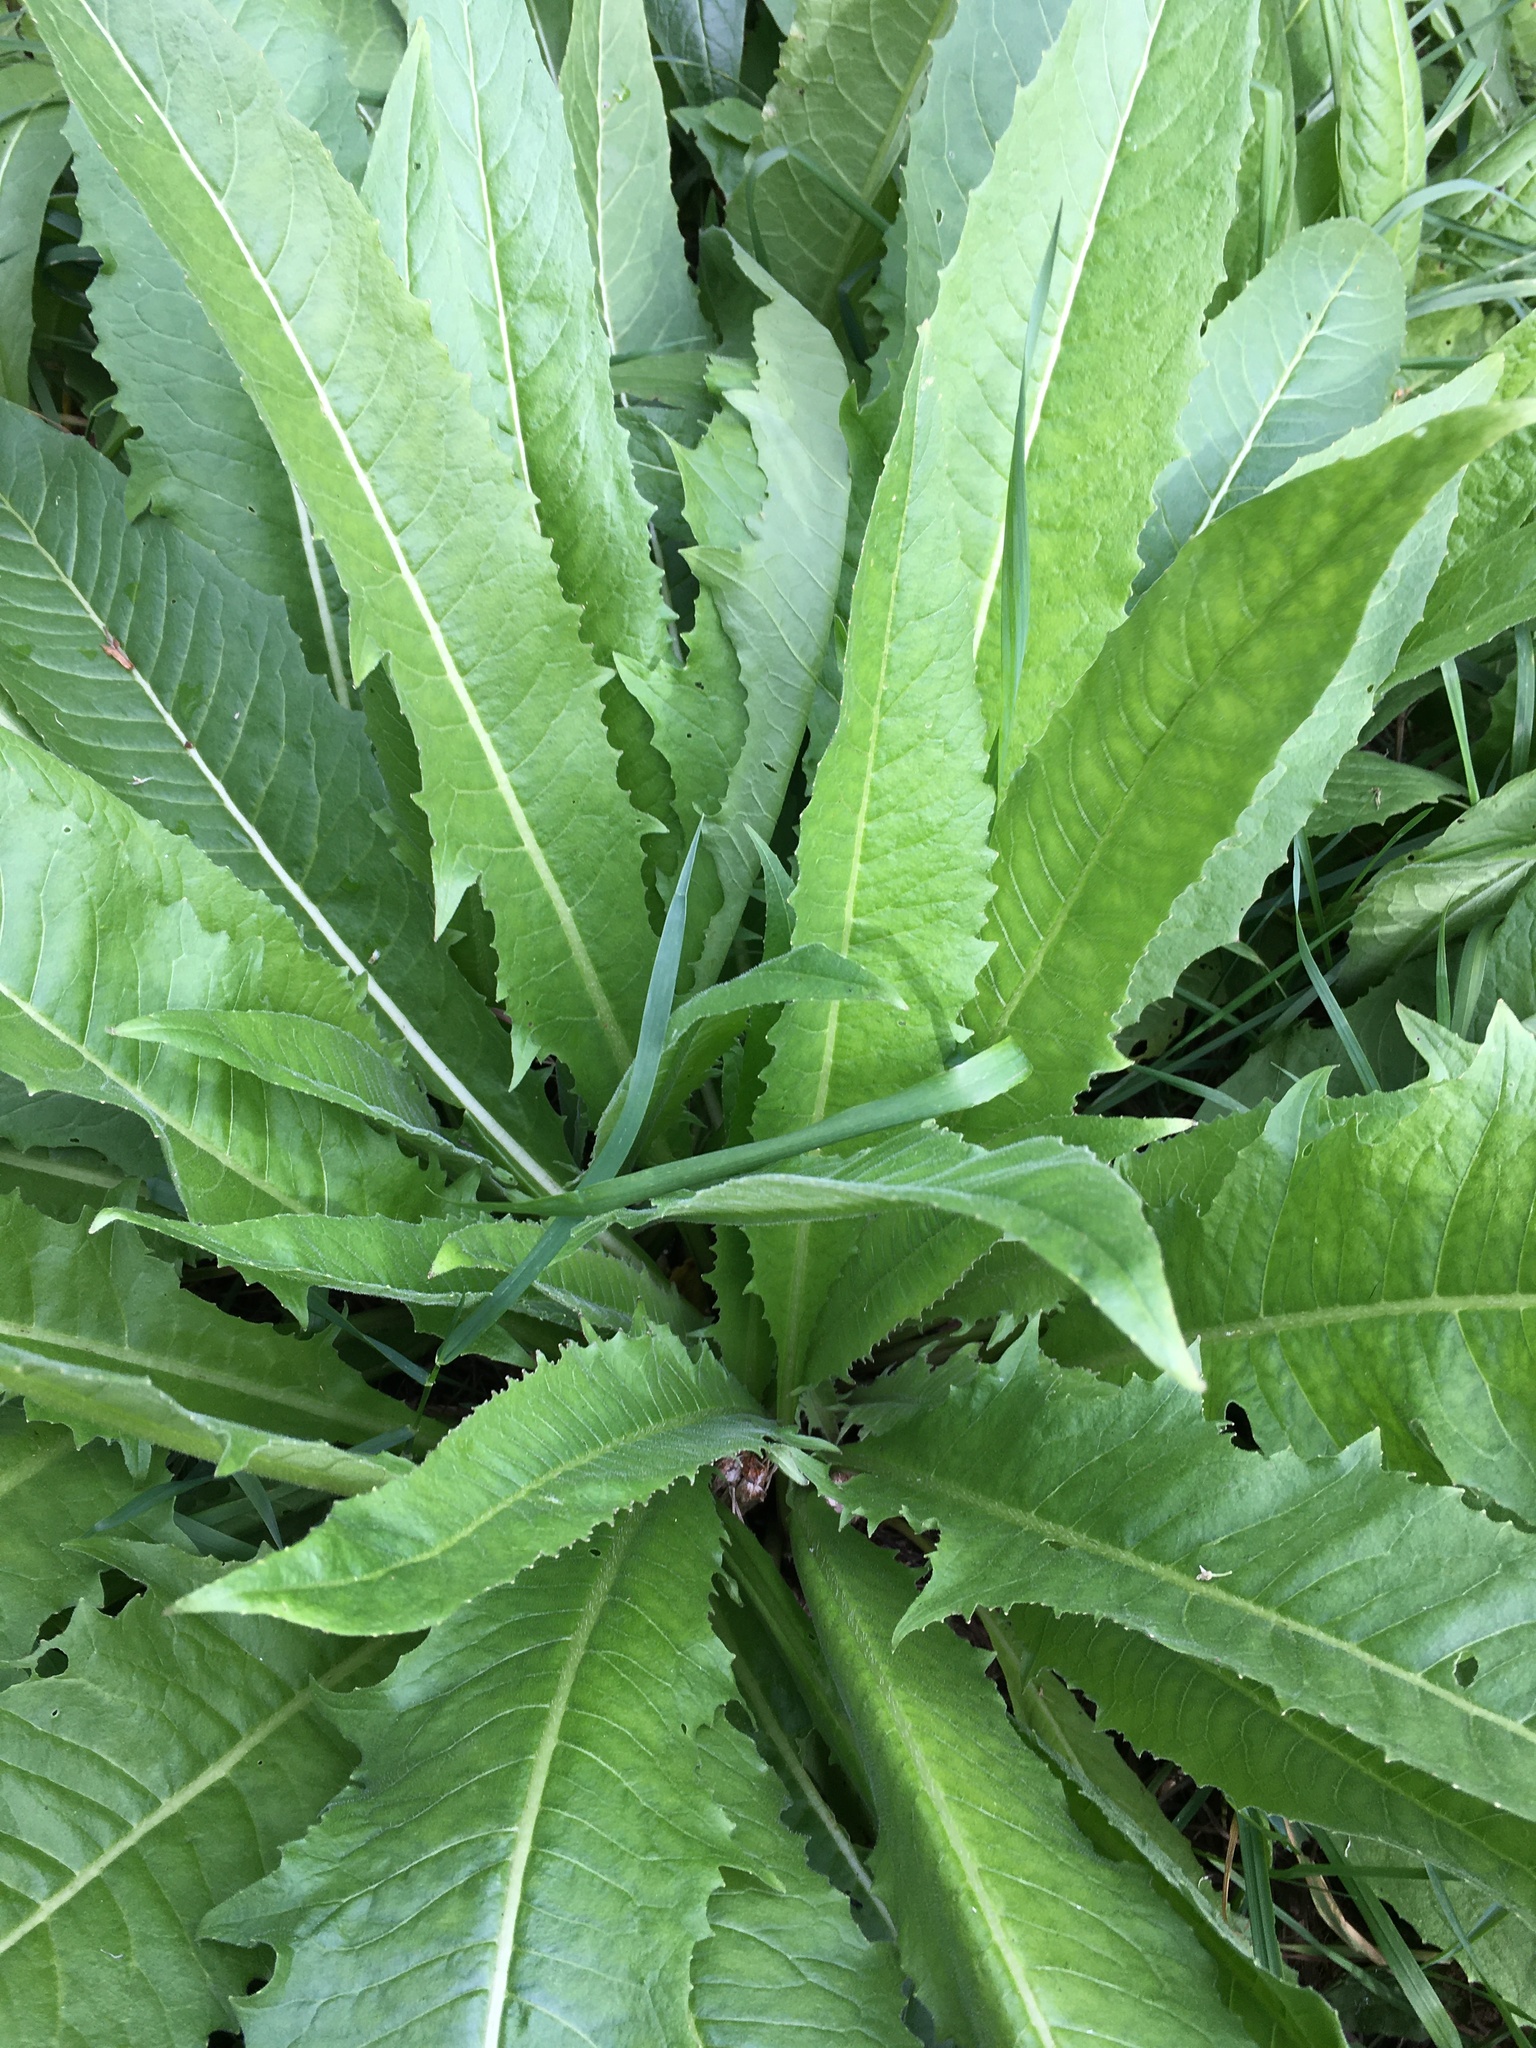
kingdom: Plantae
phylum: Tracheophyta
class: Magnoliopsida
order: Brassicales
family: Brassicaceae
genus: Bunias
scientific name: Bunias orientalis
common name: Warty-cabbage
